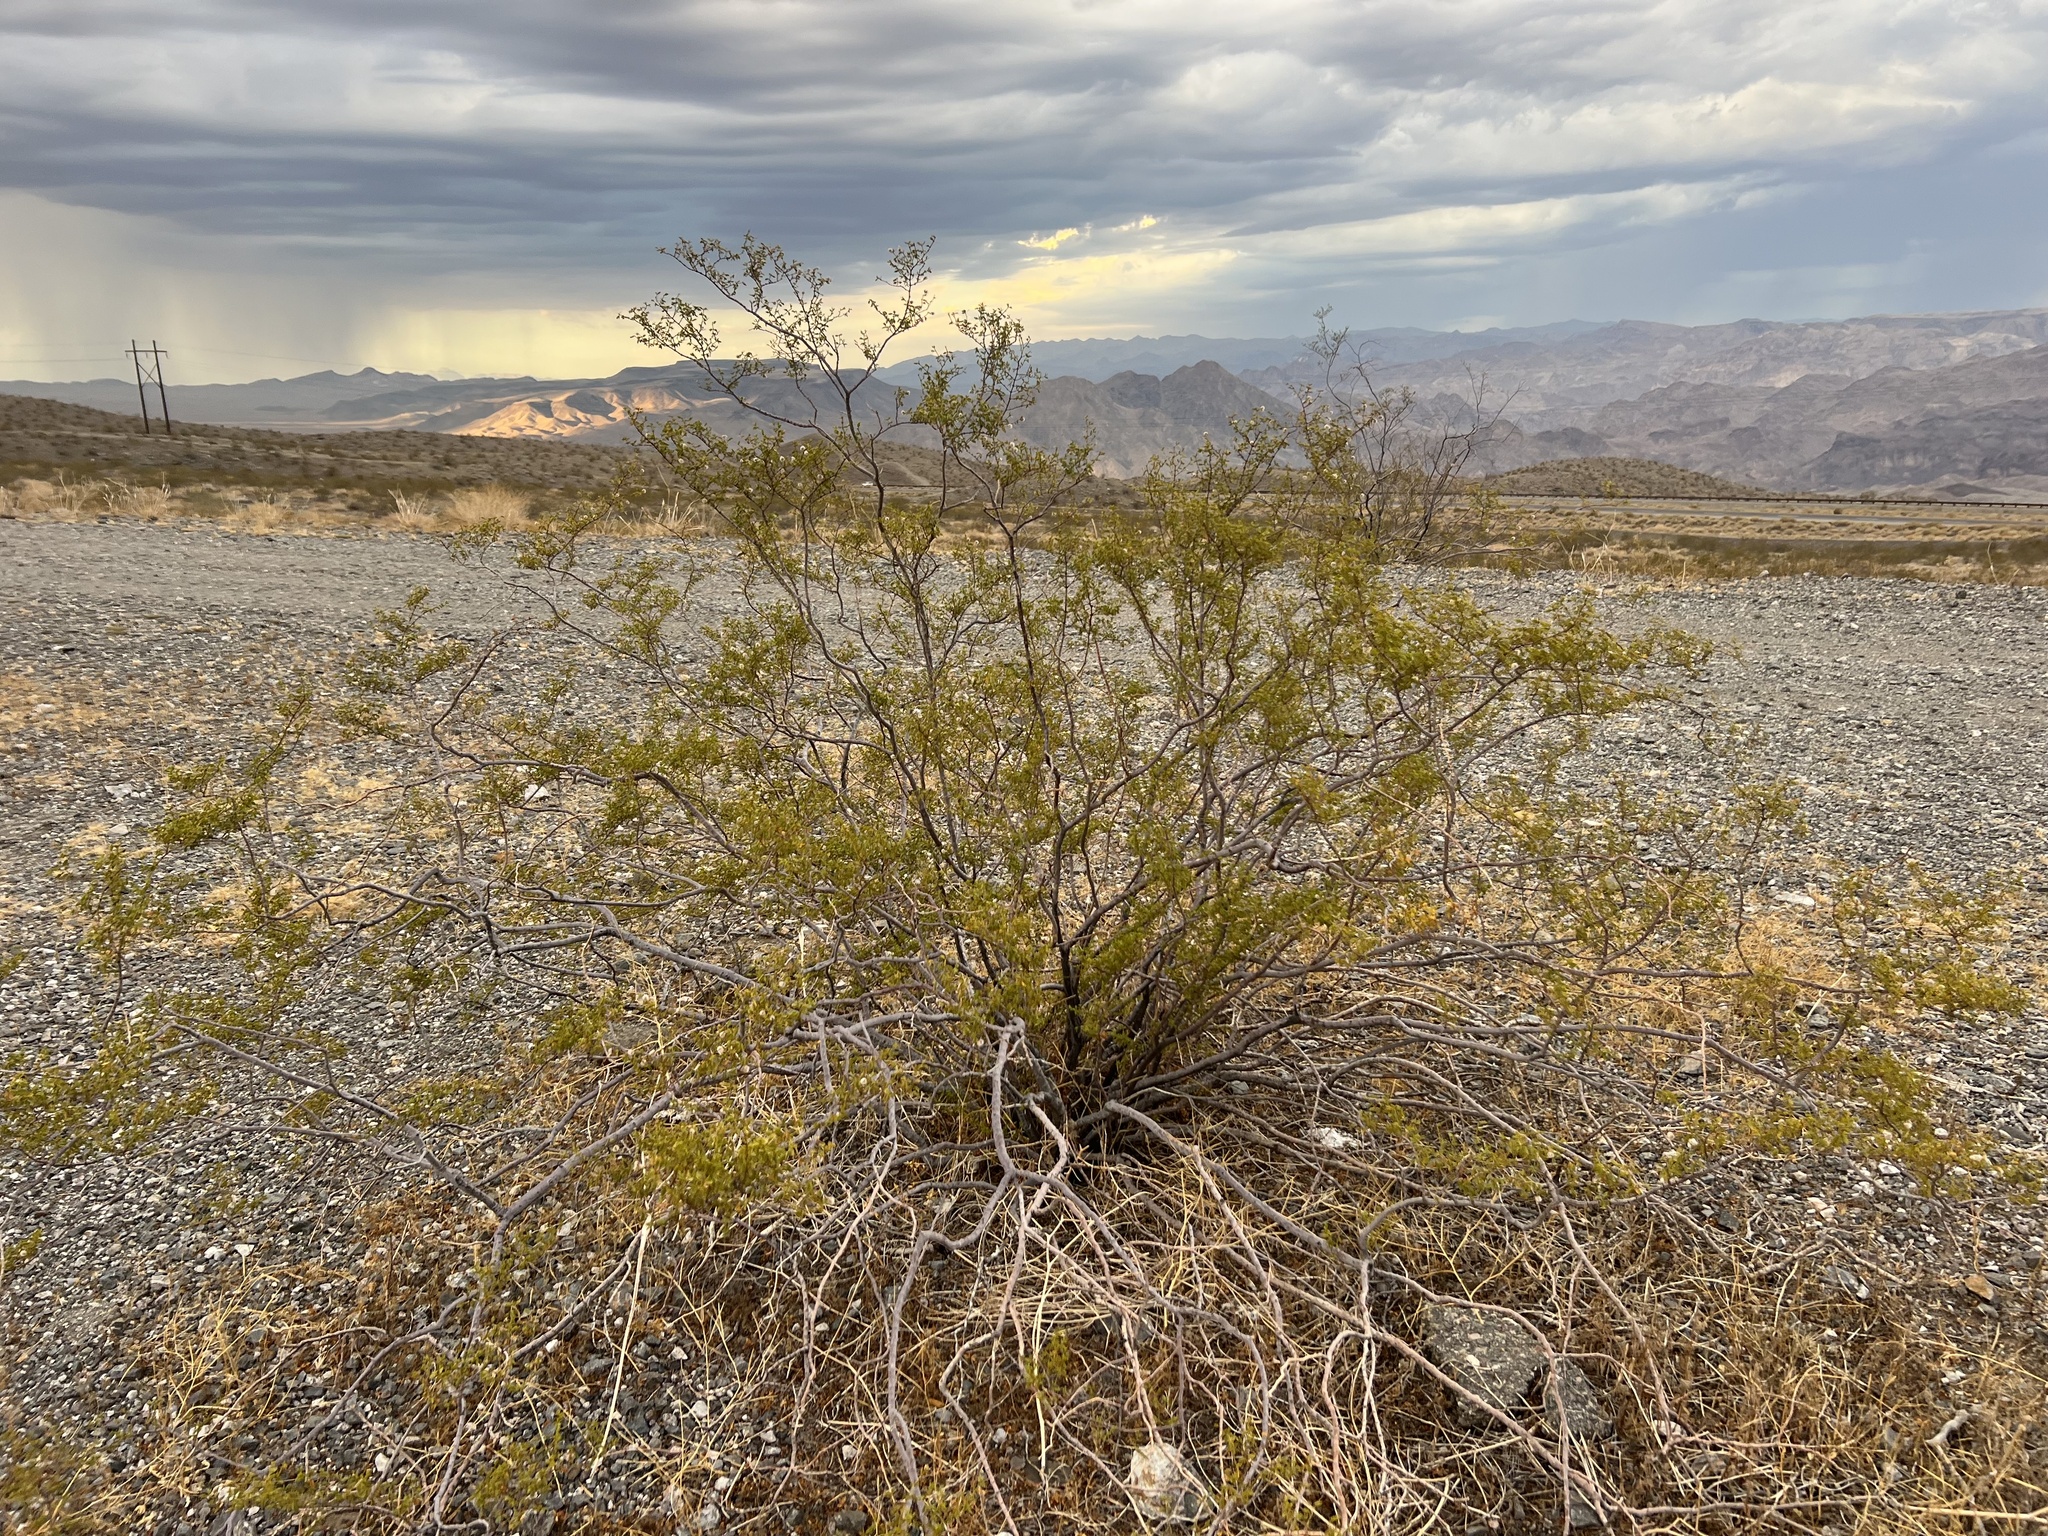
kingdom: Plantae
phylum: Tracheophyta
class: Magnoliopsida
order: Zygophyllales
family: Zygophyllaceae
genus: Larrea
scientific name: Larrea tridentata
